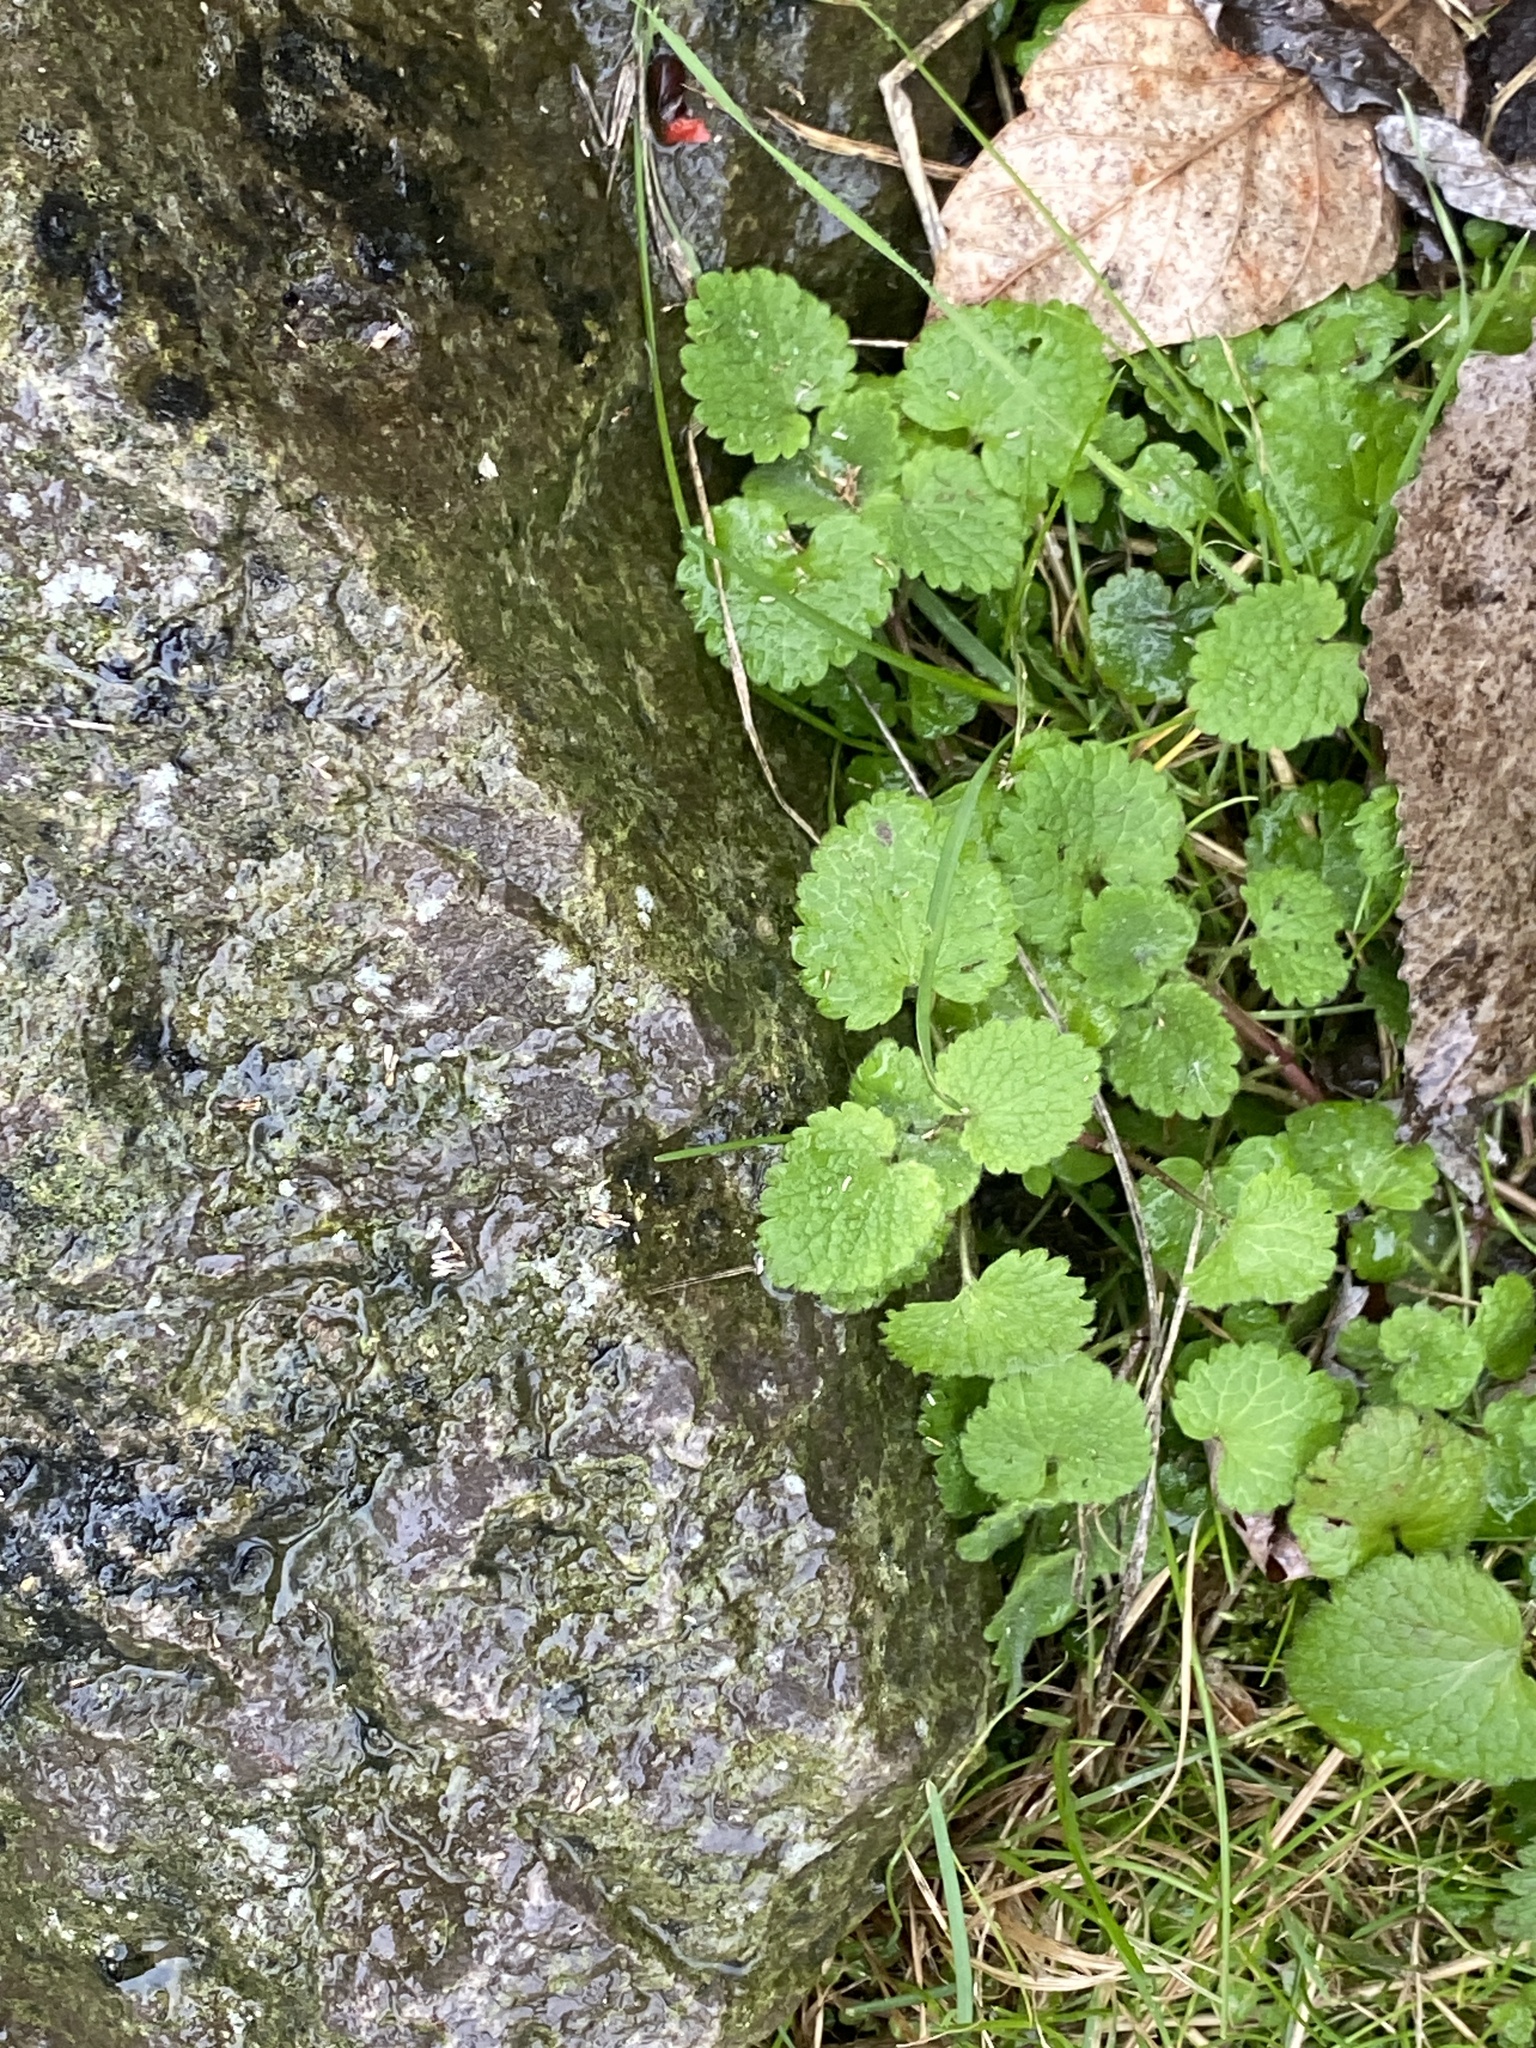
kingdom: Plantae
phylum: Tracheophyta
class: Magnoliopsida
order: Lamiales
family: Lamiaceae
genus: Lamium
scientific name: Lamium purpureum
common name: Red dead-nettle
